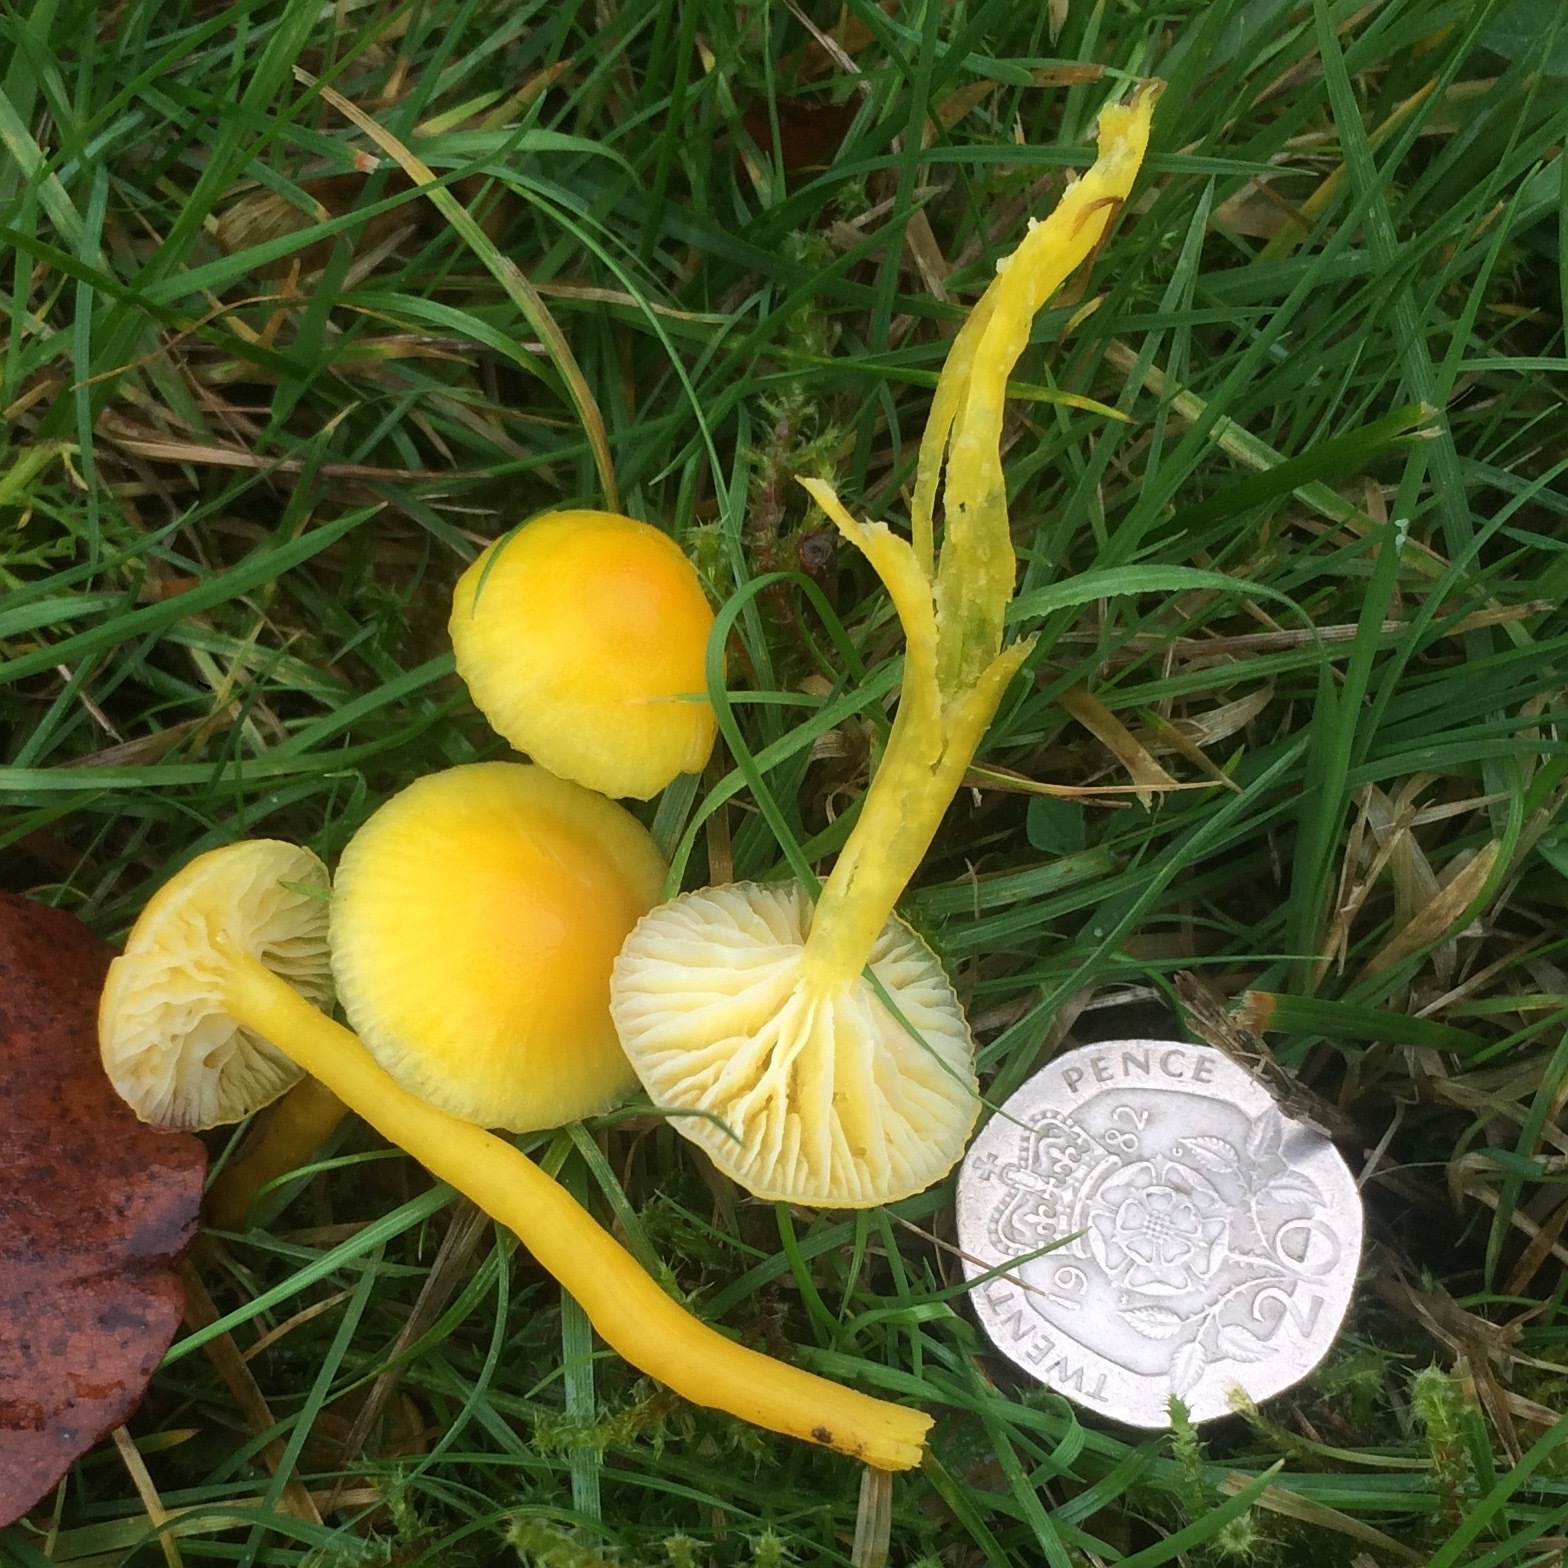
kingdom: Fungi
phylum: Basidiomycota
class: Agaricomycetes
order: Agaricales
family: Hygrophoraceae
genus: Hygrocybe
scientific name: Hygrocybe ceracea
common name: Butter waxcap
